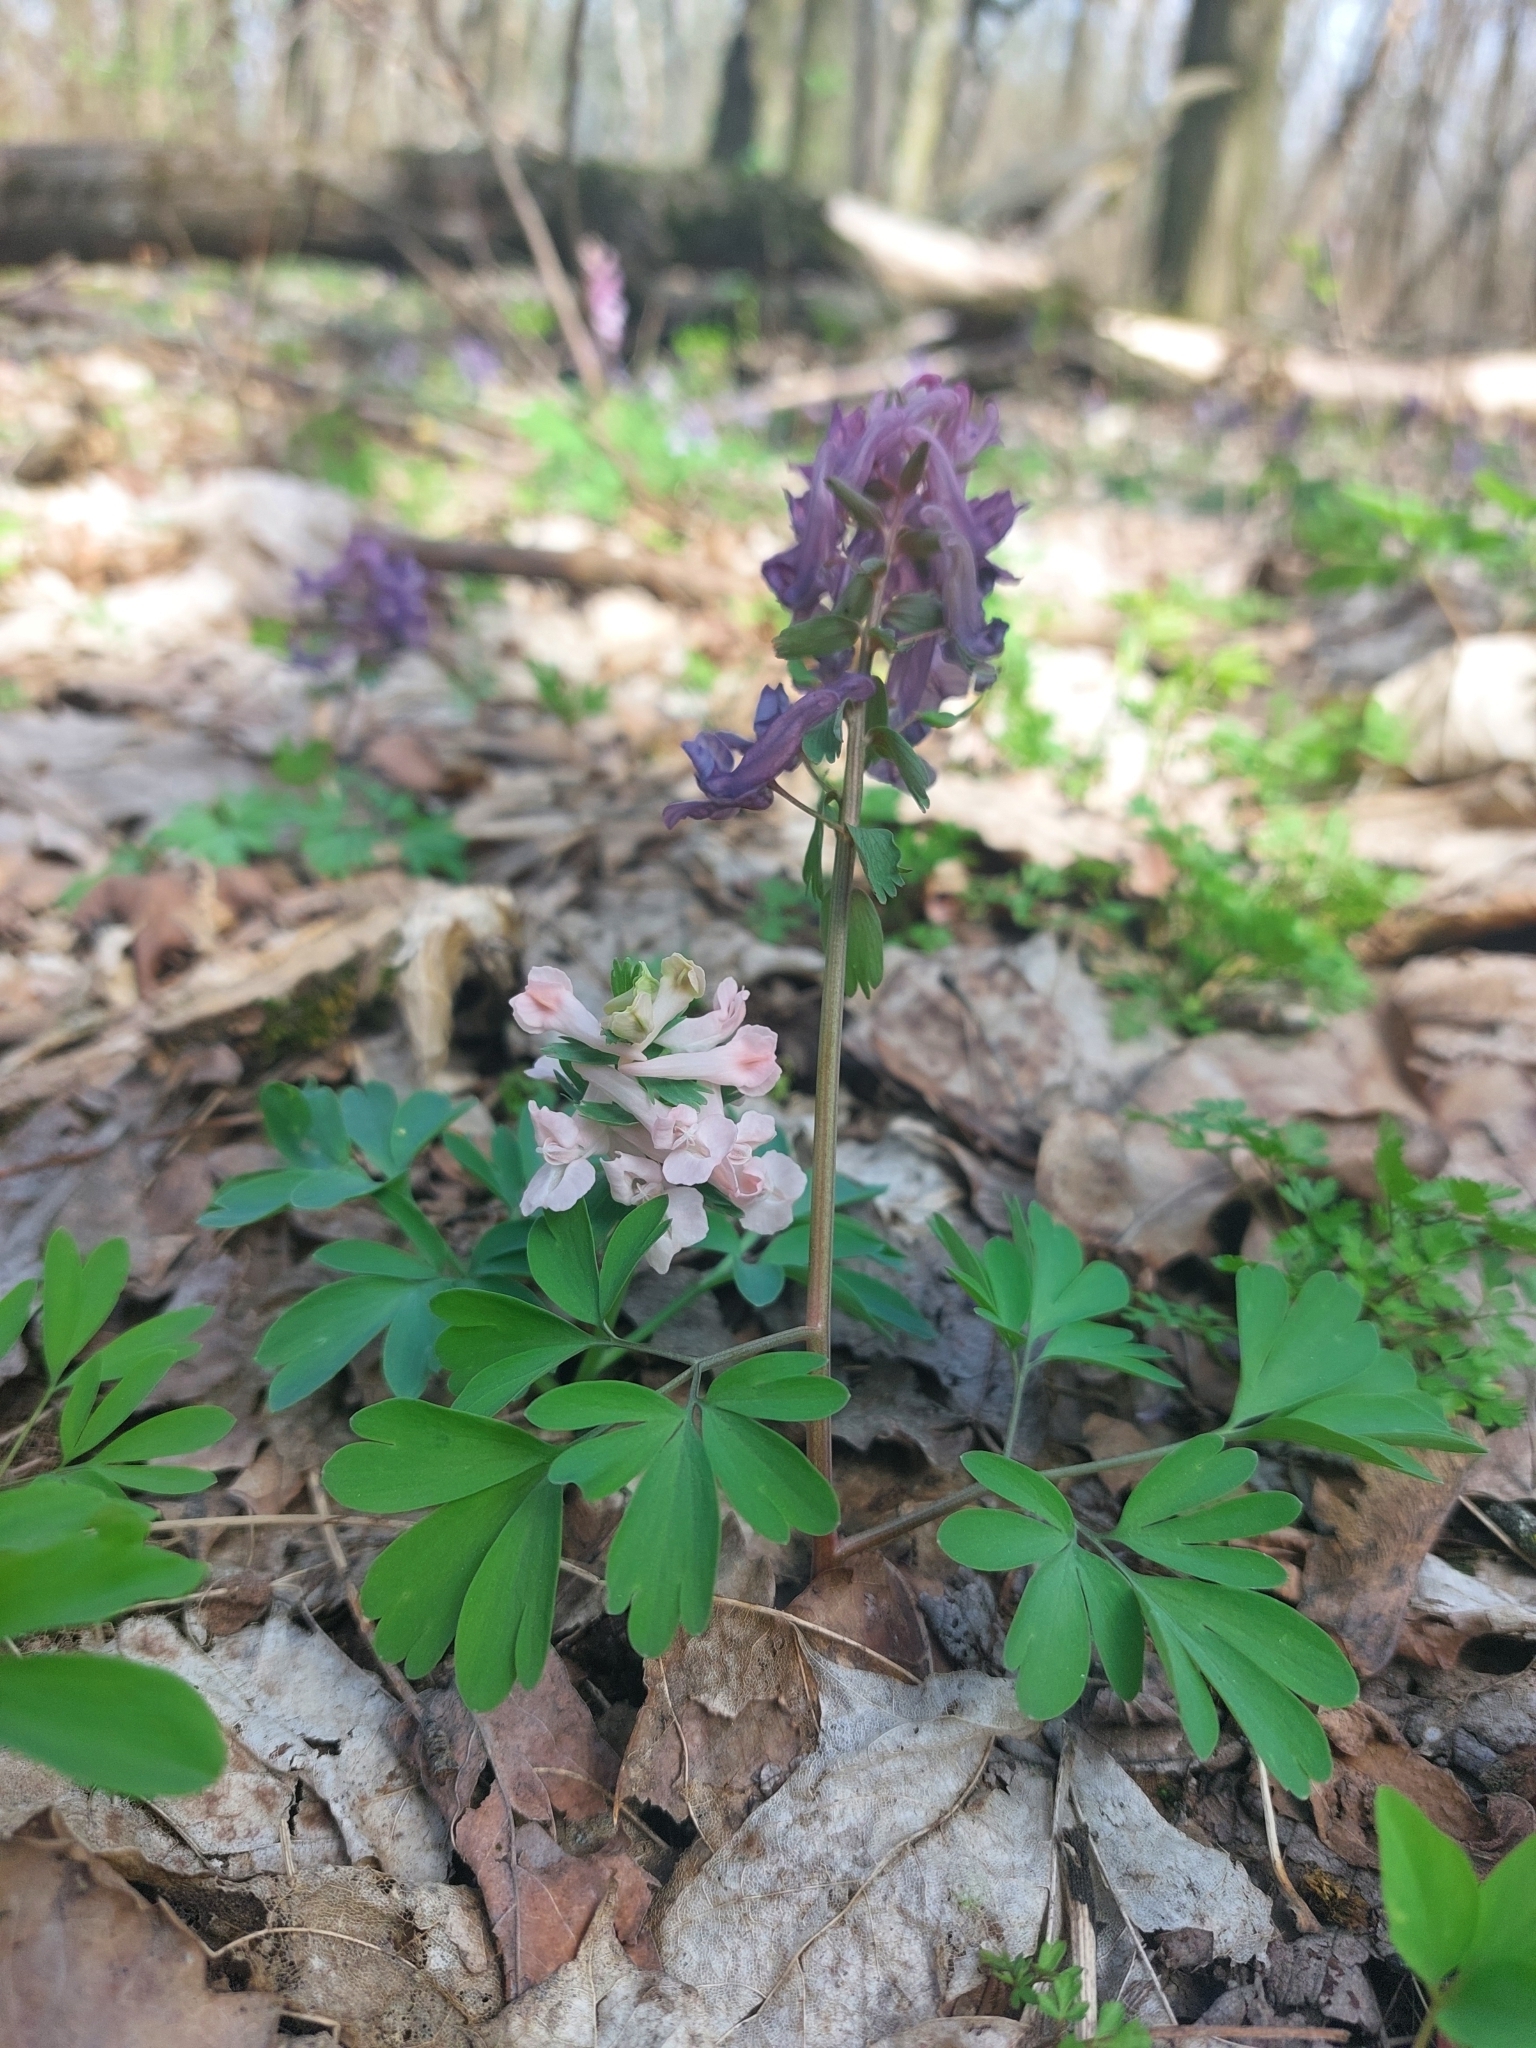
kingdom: Plantae
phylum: Tracheophyta
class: Magnoliopsida
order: Ranunculales
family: Papaveraceae
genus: Corydalis
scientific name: Corydalis solida
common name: Bird-in-a-bush
